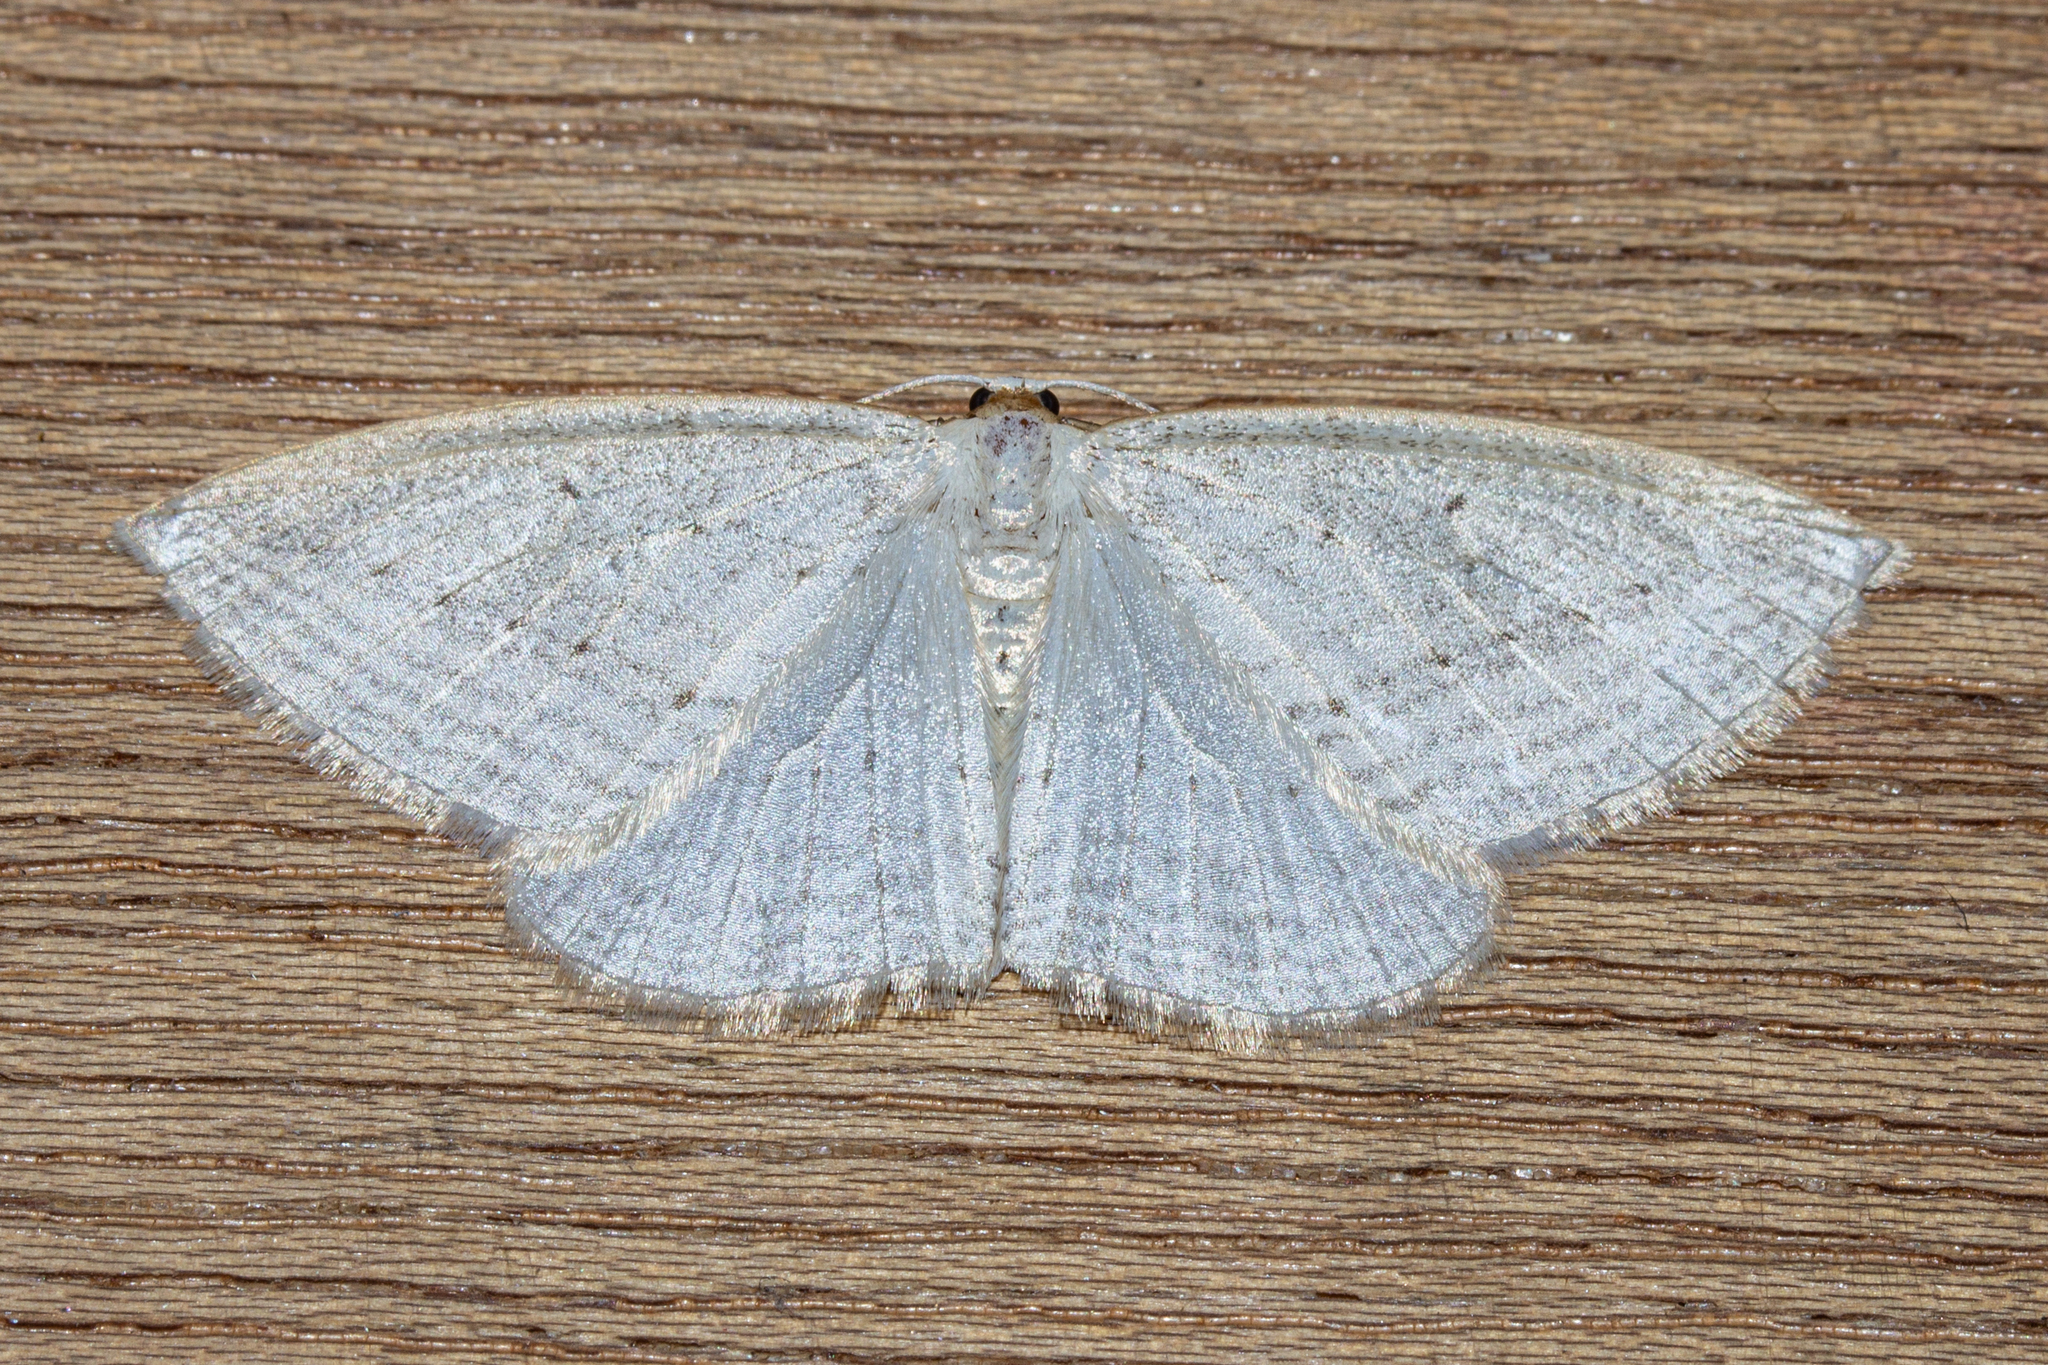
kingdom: Animalia
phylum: Arthropoda
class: Insecta
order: Lepidoptera
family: Geometridae
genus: Orthoclydon
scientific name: Orthoclydon praefectata
